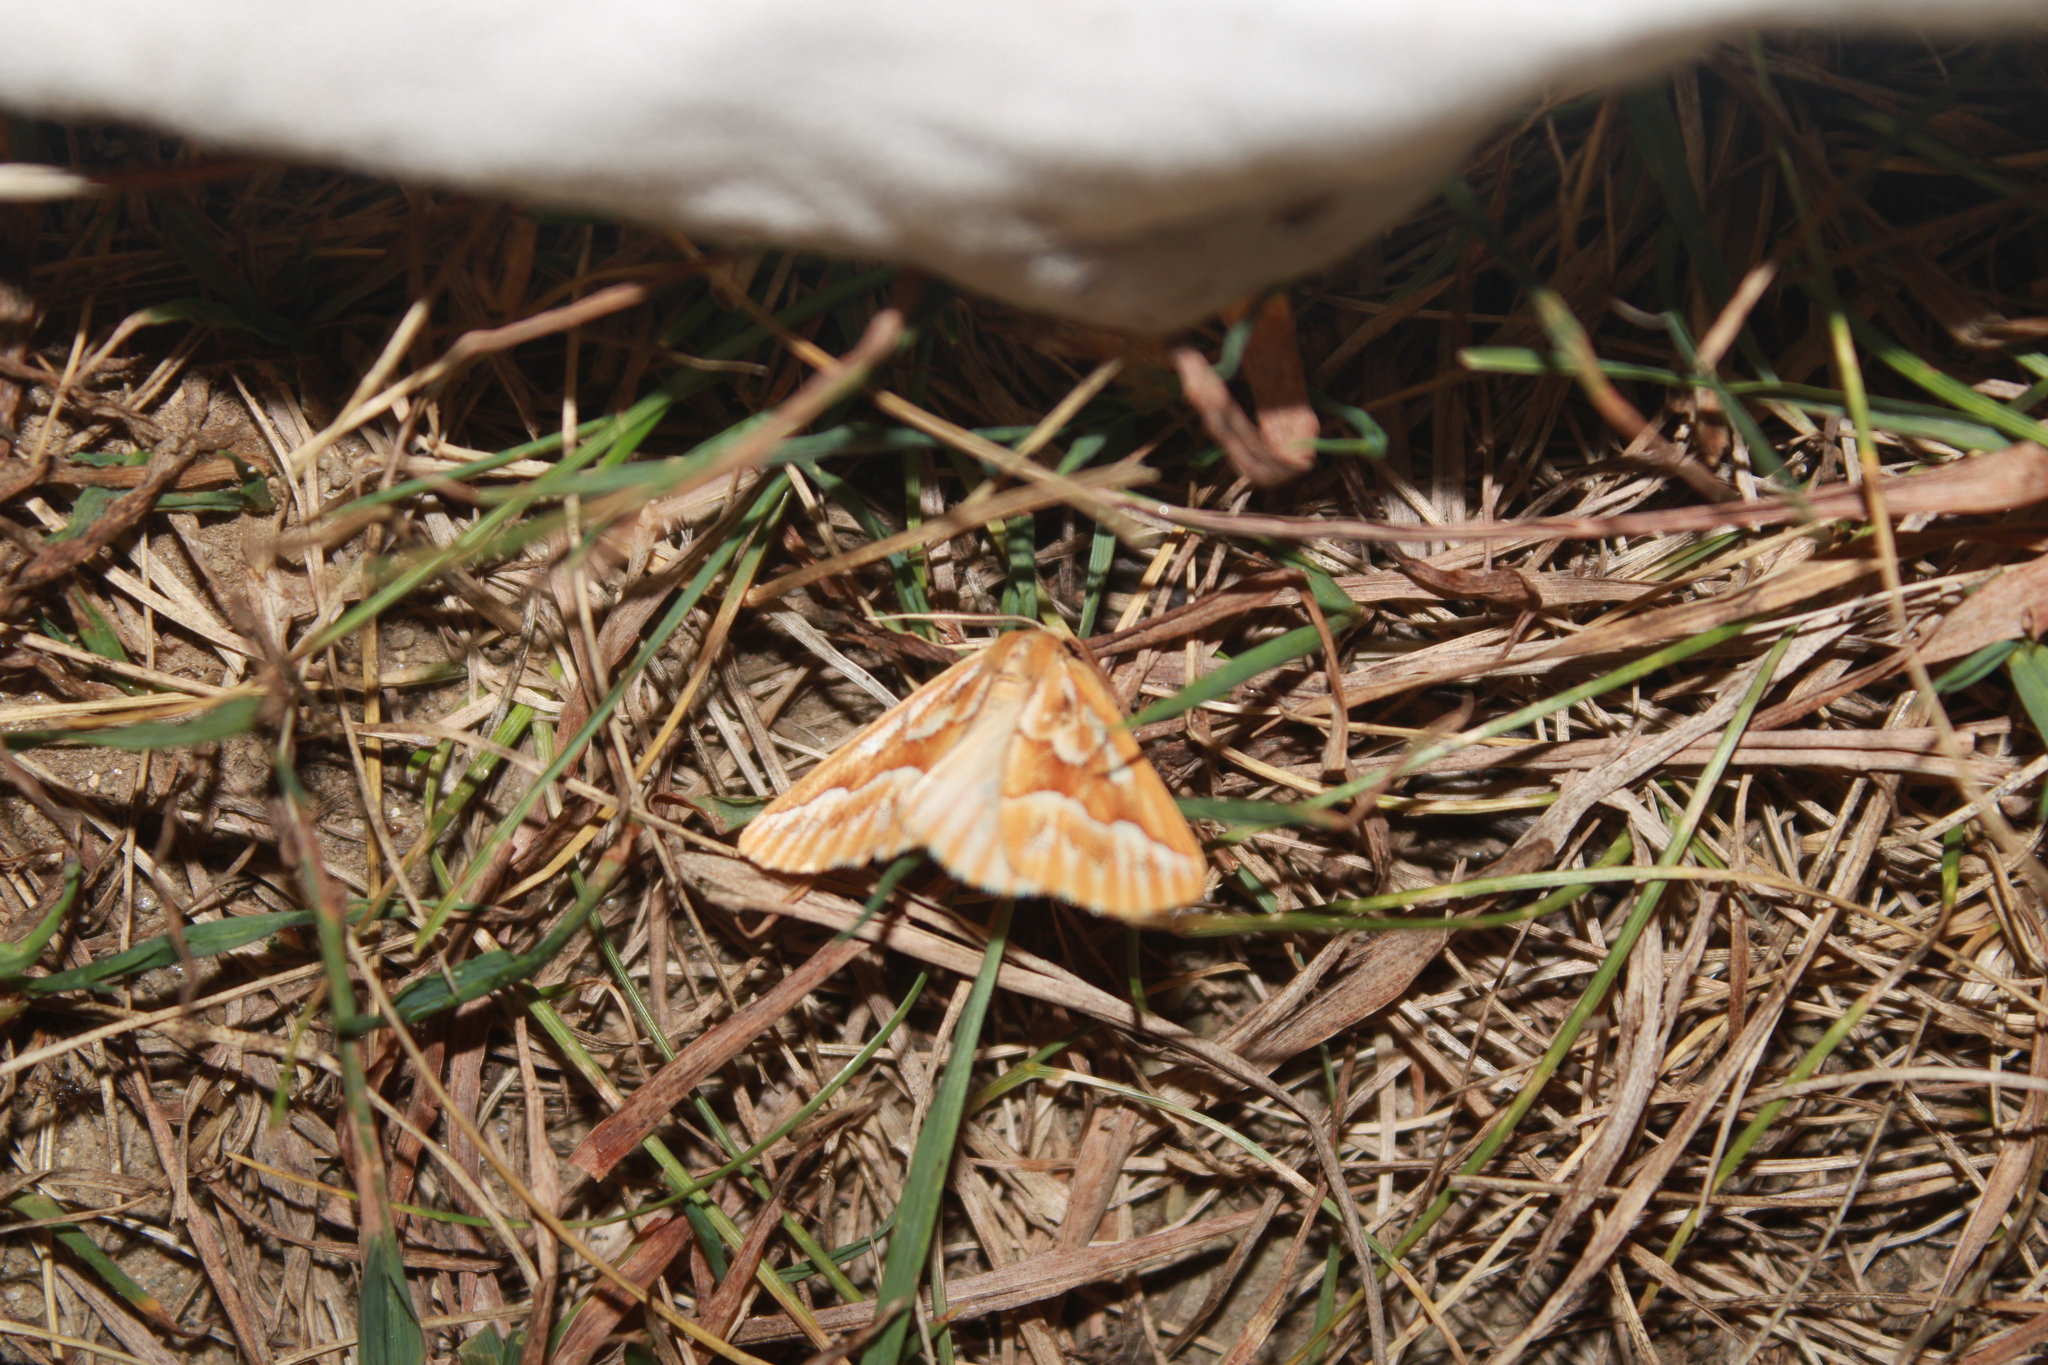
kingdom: Animalia
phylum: Arthropoda
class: Insecta
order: Lepidoptera
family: Geometridae
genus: Caripeta
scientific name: Caripeta piniata
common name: Northern pine looper moth
